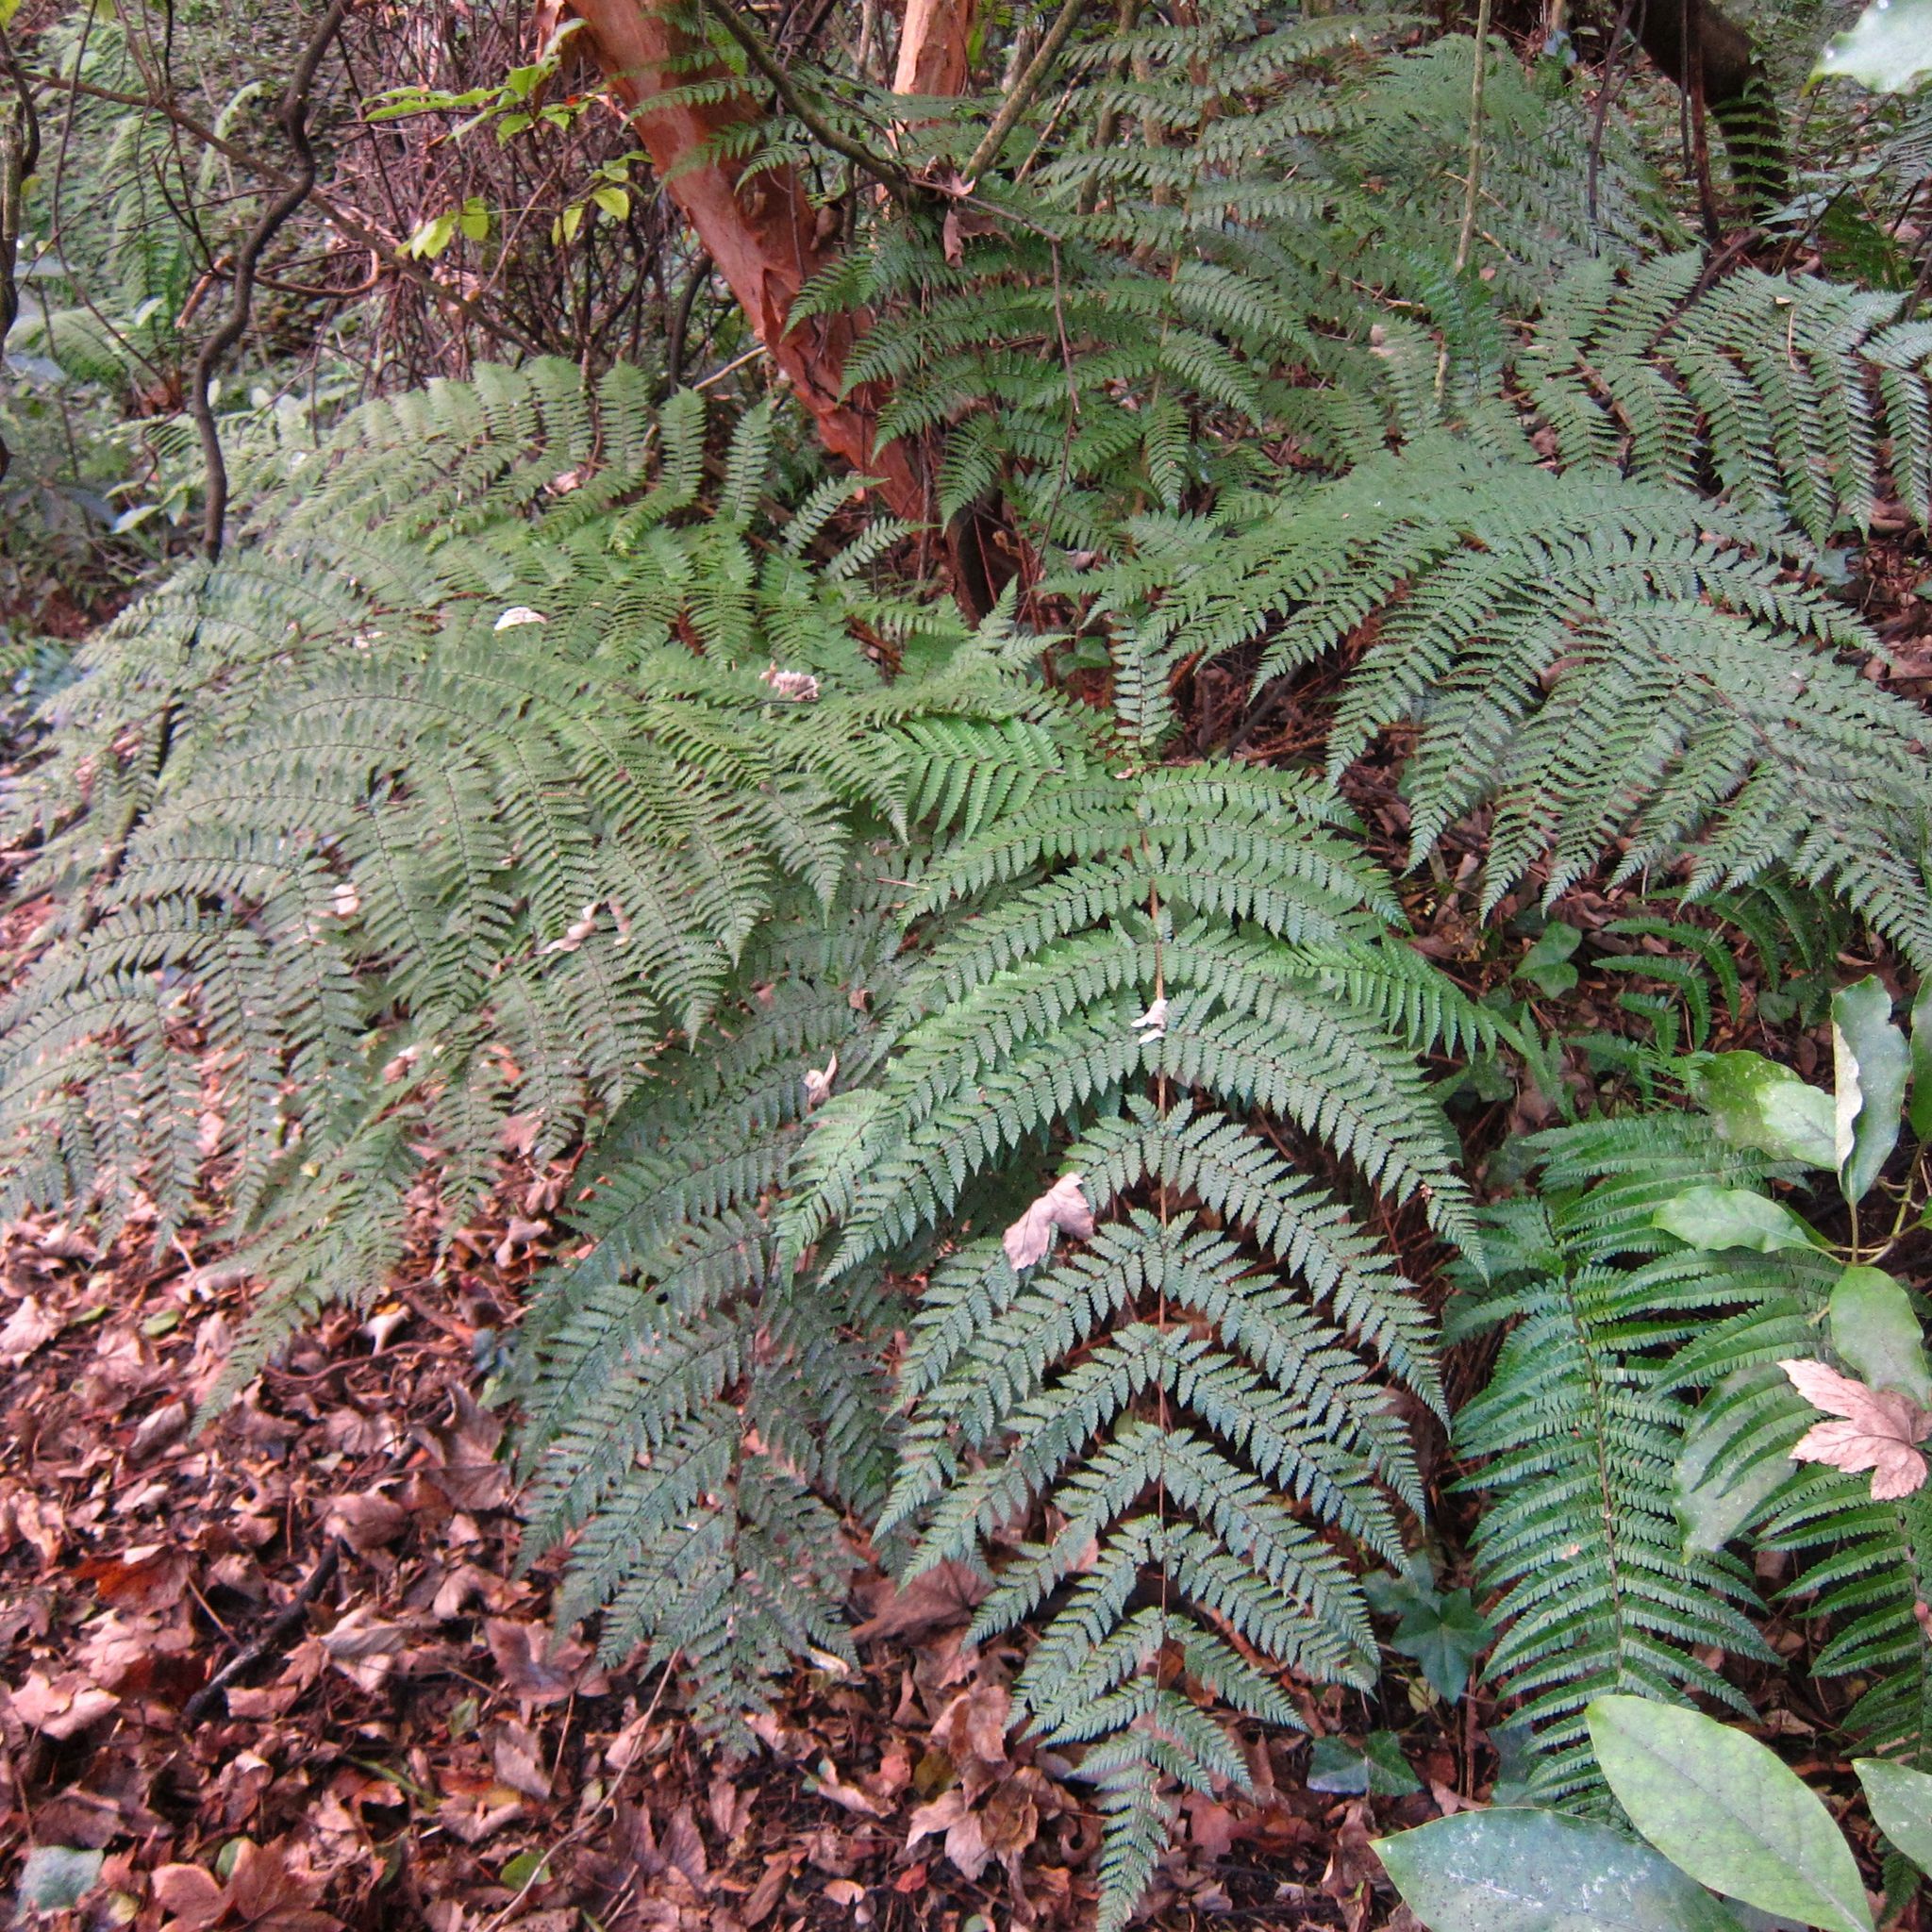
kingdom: Plantae
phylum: Tracheophyta
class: Polypodiopsida
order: Cyatheales
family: Cyatheaceae
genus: Alsophila
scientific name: Alsophila smithii
